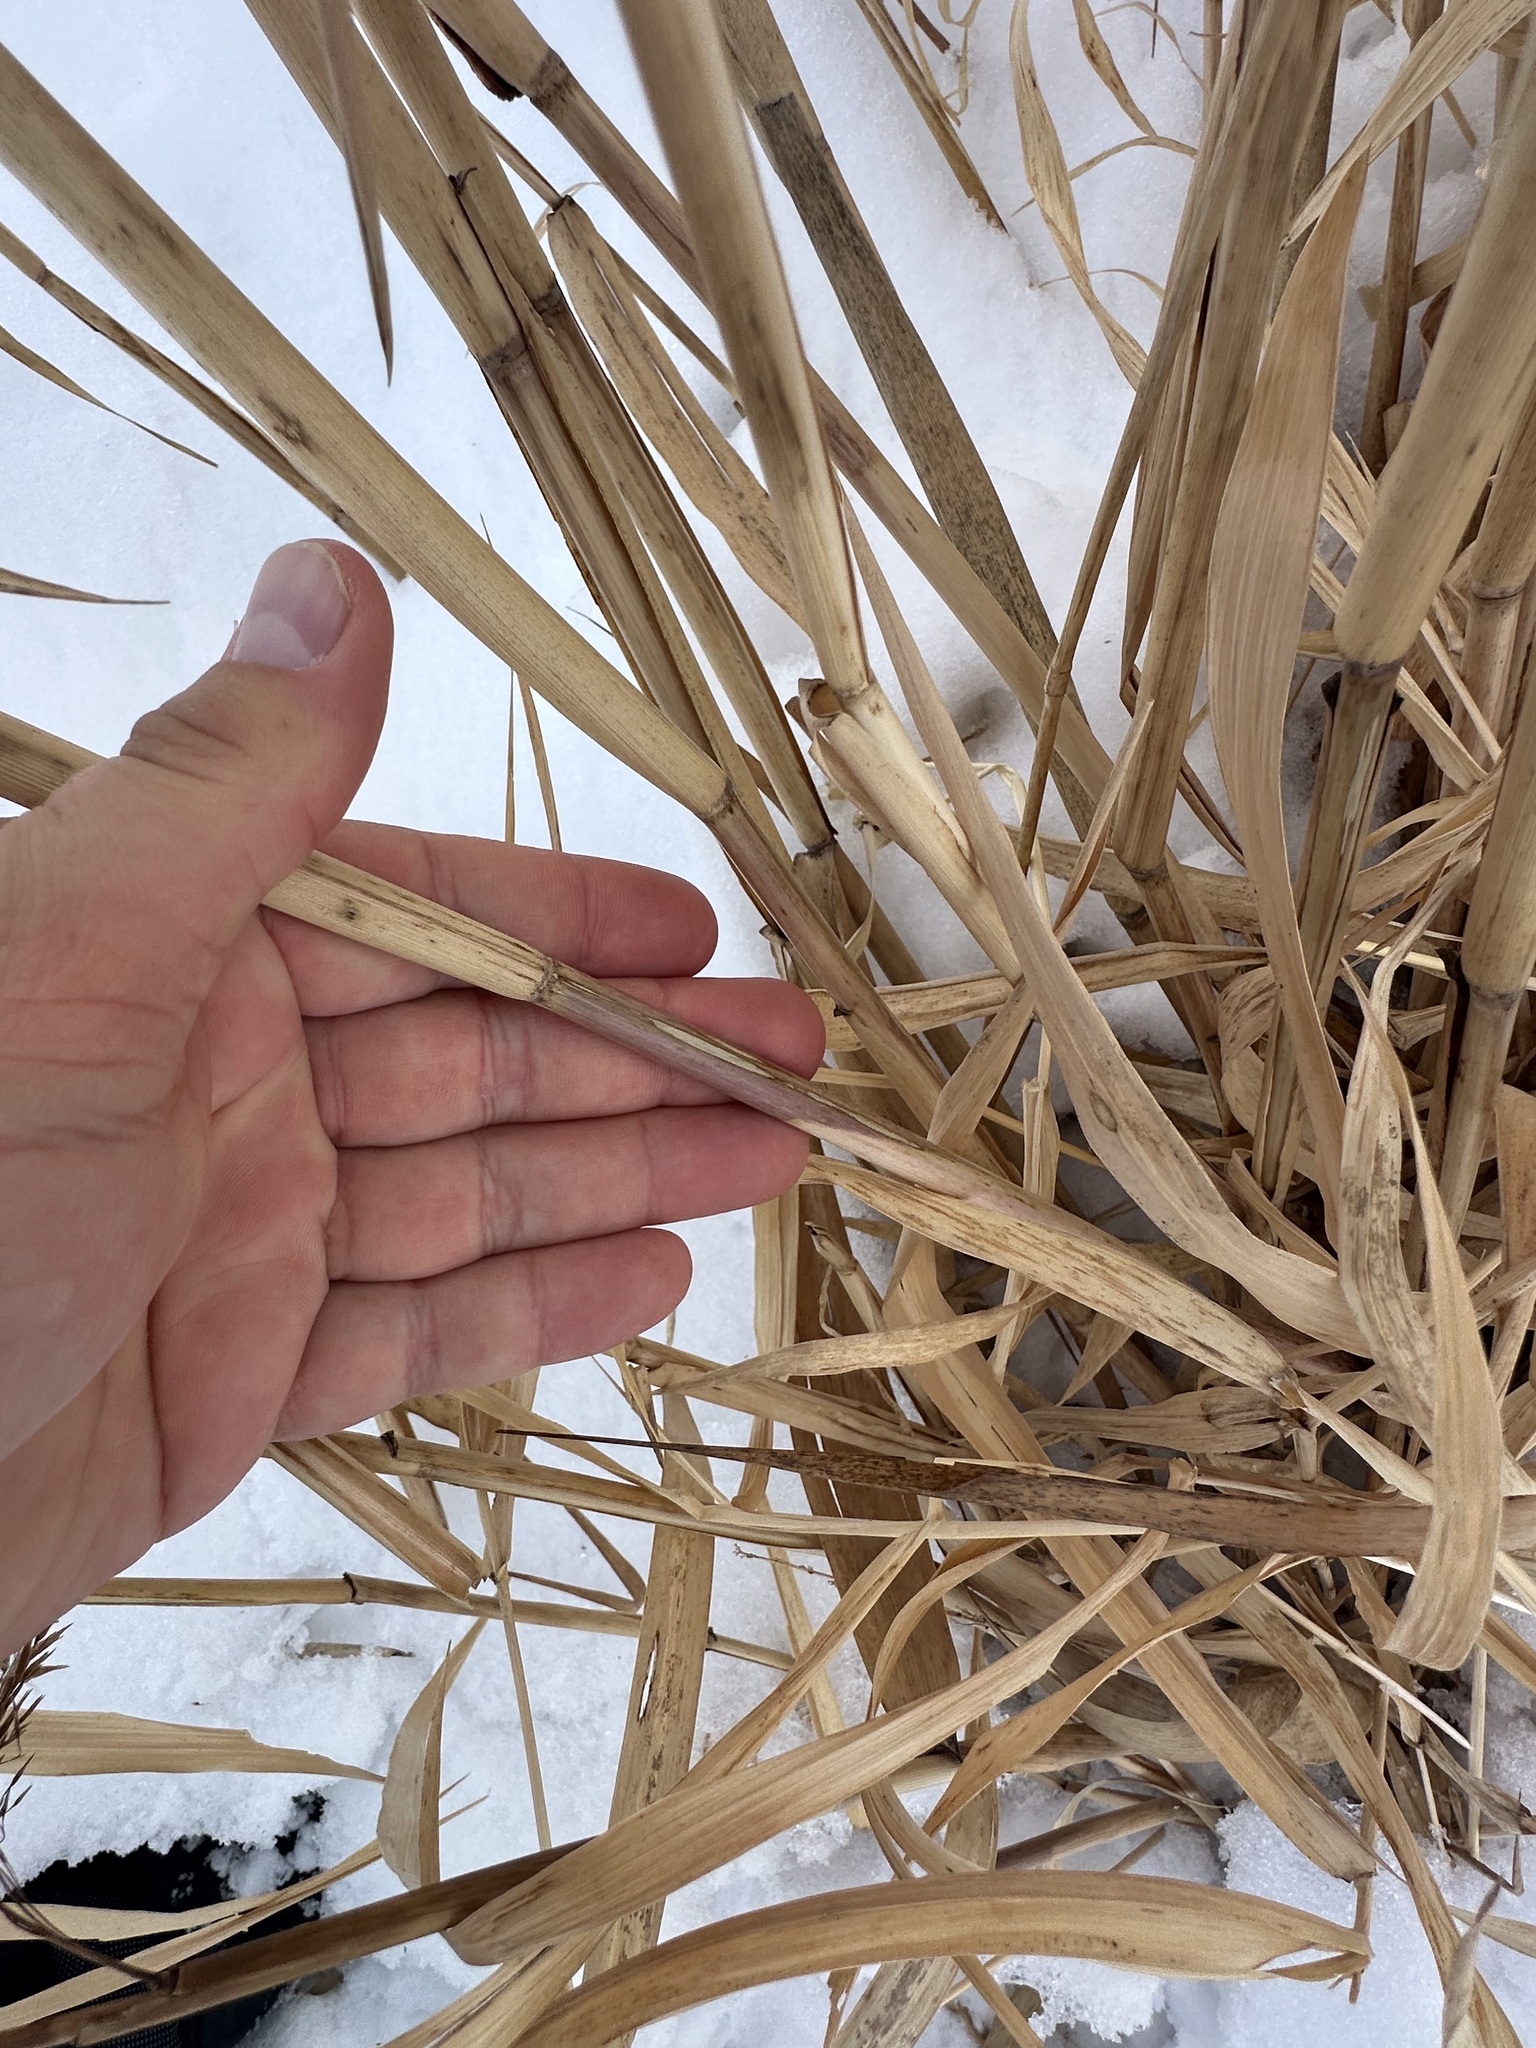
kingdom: Plantae
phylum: Tracheophyta
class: Liliopsida
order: Poales
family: Poaceae
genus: Phragmites
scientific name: Phragmites australis
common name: Common reed
